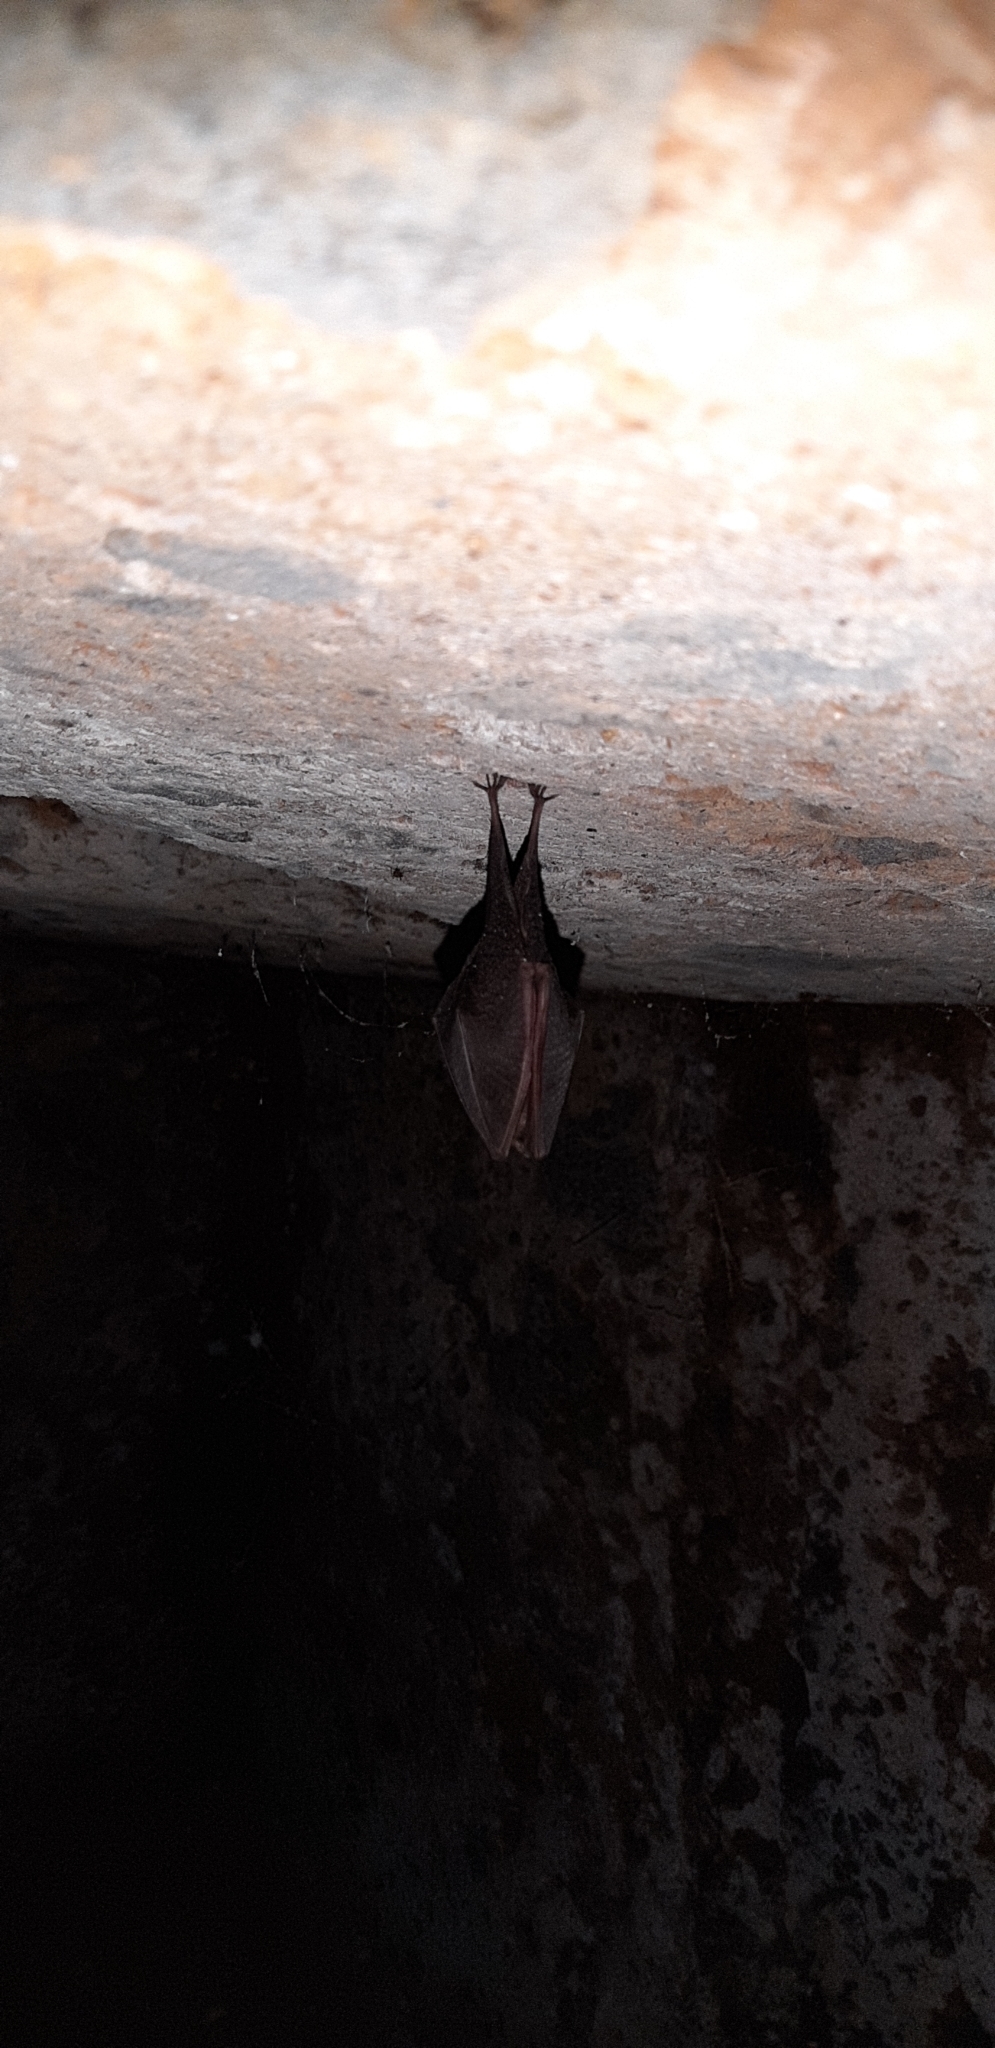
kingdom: Animalia
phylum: Chordata
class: Mammalia
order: Chiroptera
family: Rhinolophidae
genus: Rhinolophus
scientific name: Rhinolophus hipposideros
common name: Lesser horseshoe bat
